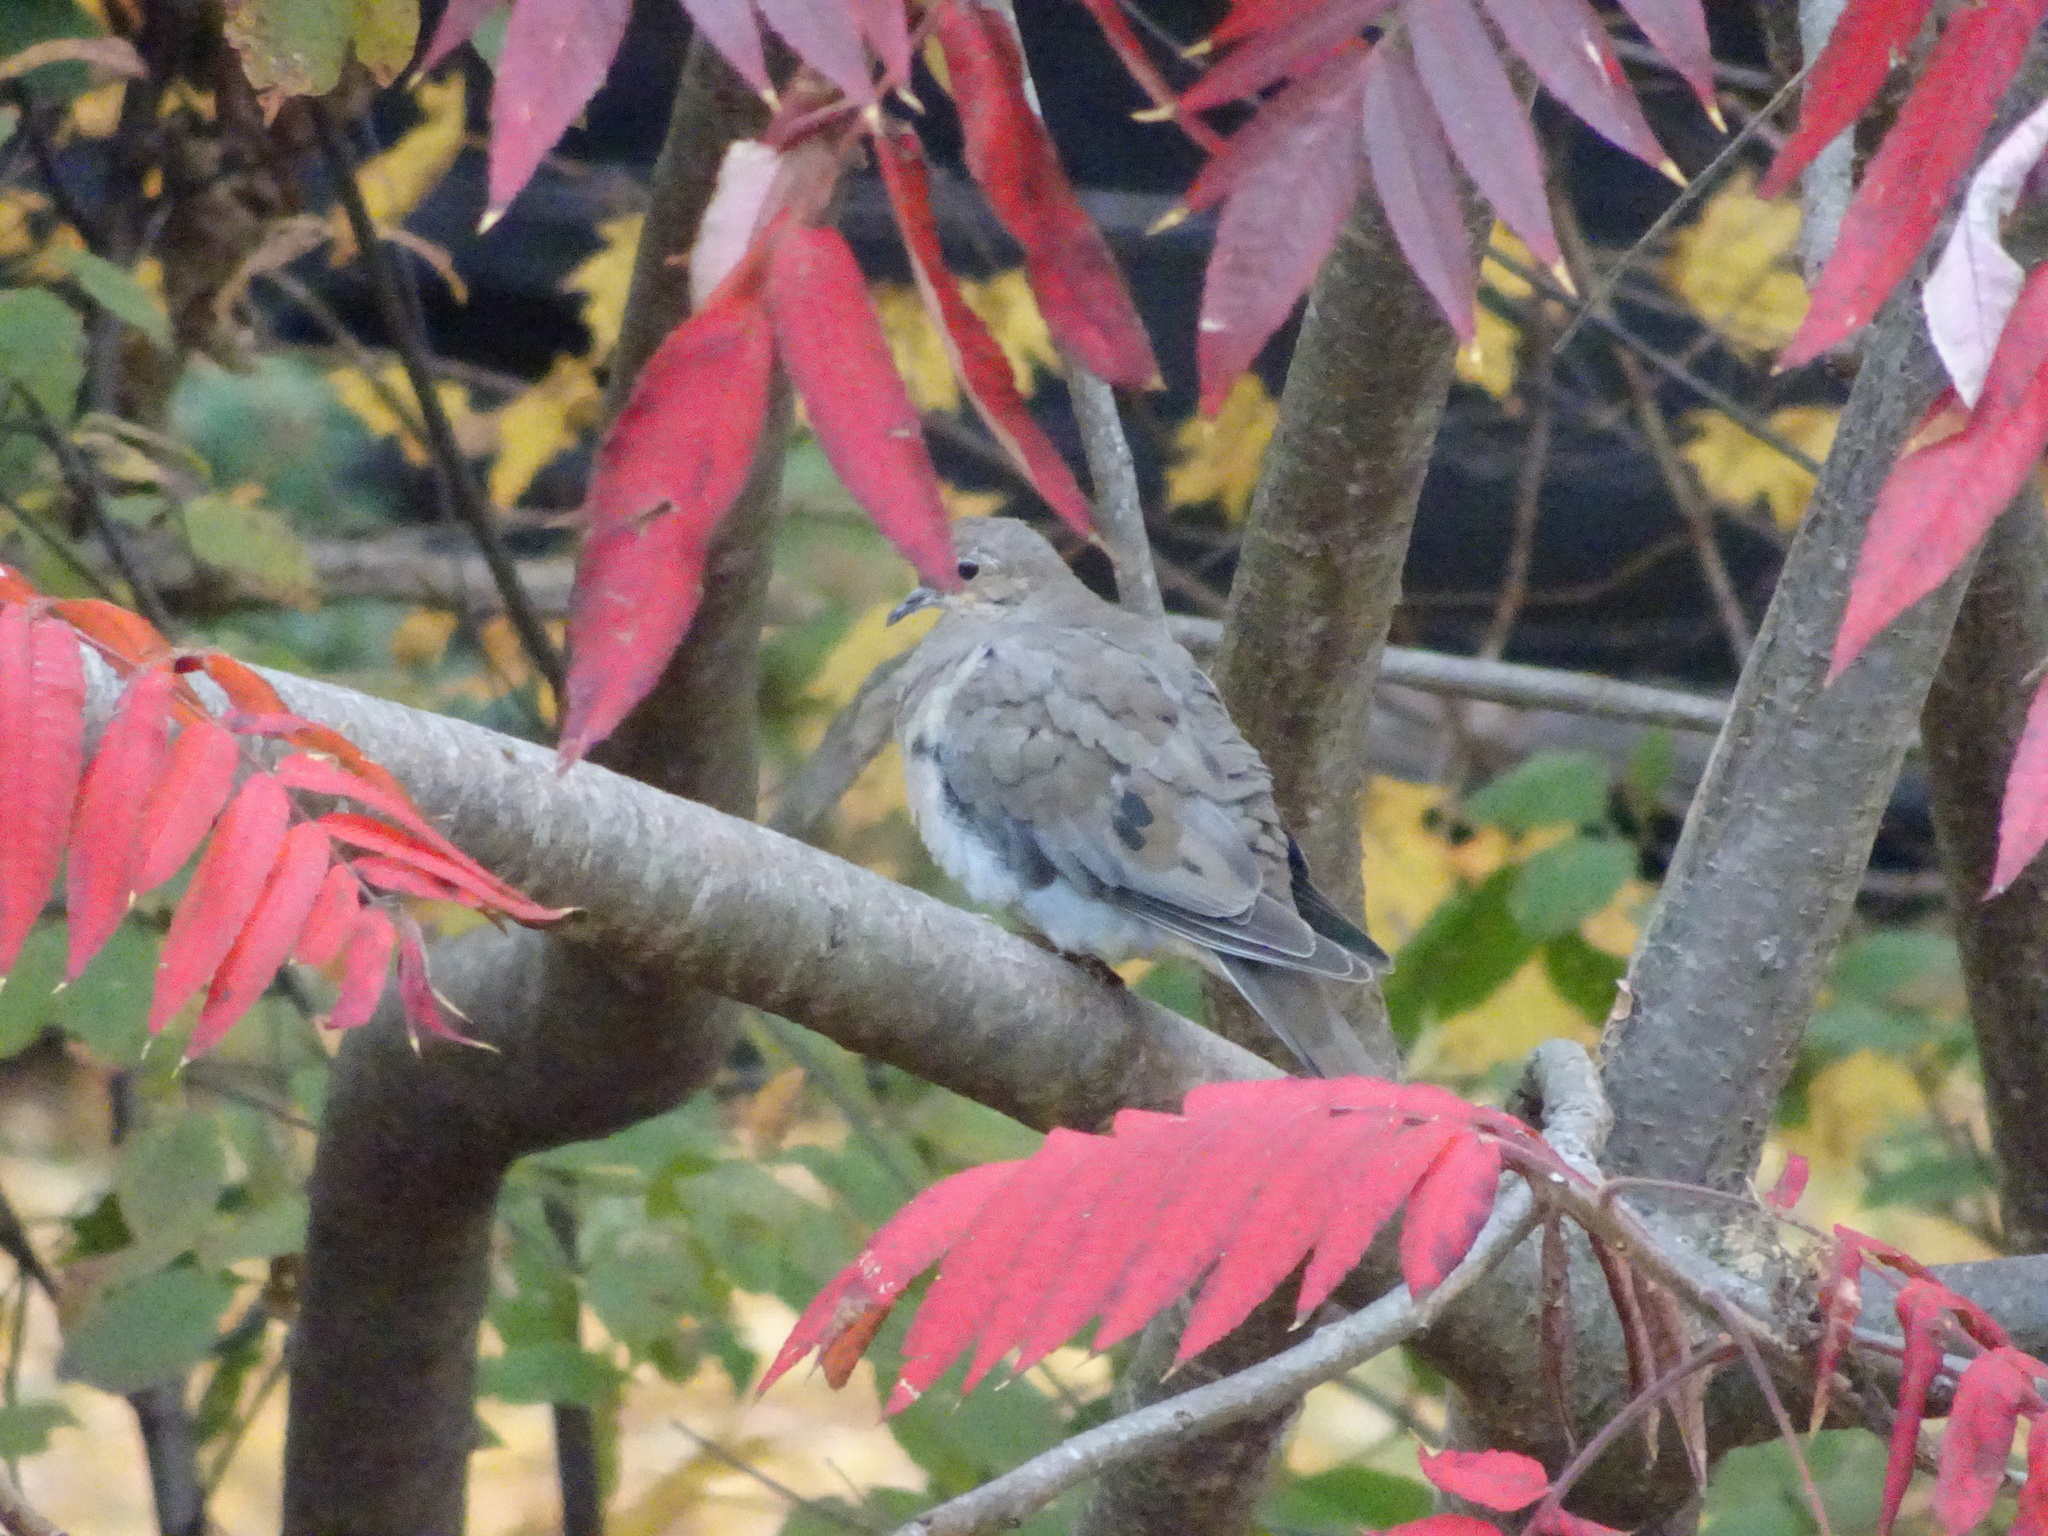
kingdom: Animalia
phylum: Chordata
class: Aves
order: Columbiformes
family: Columbidae
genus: Zenaida
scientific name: Zenaida macroura
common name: Mourning dove
